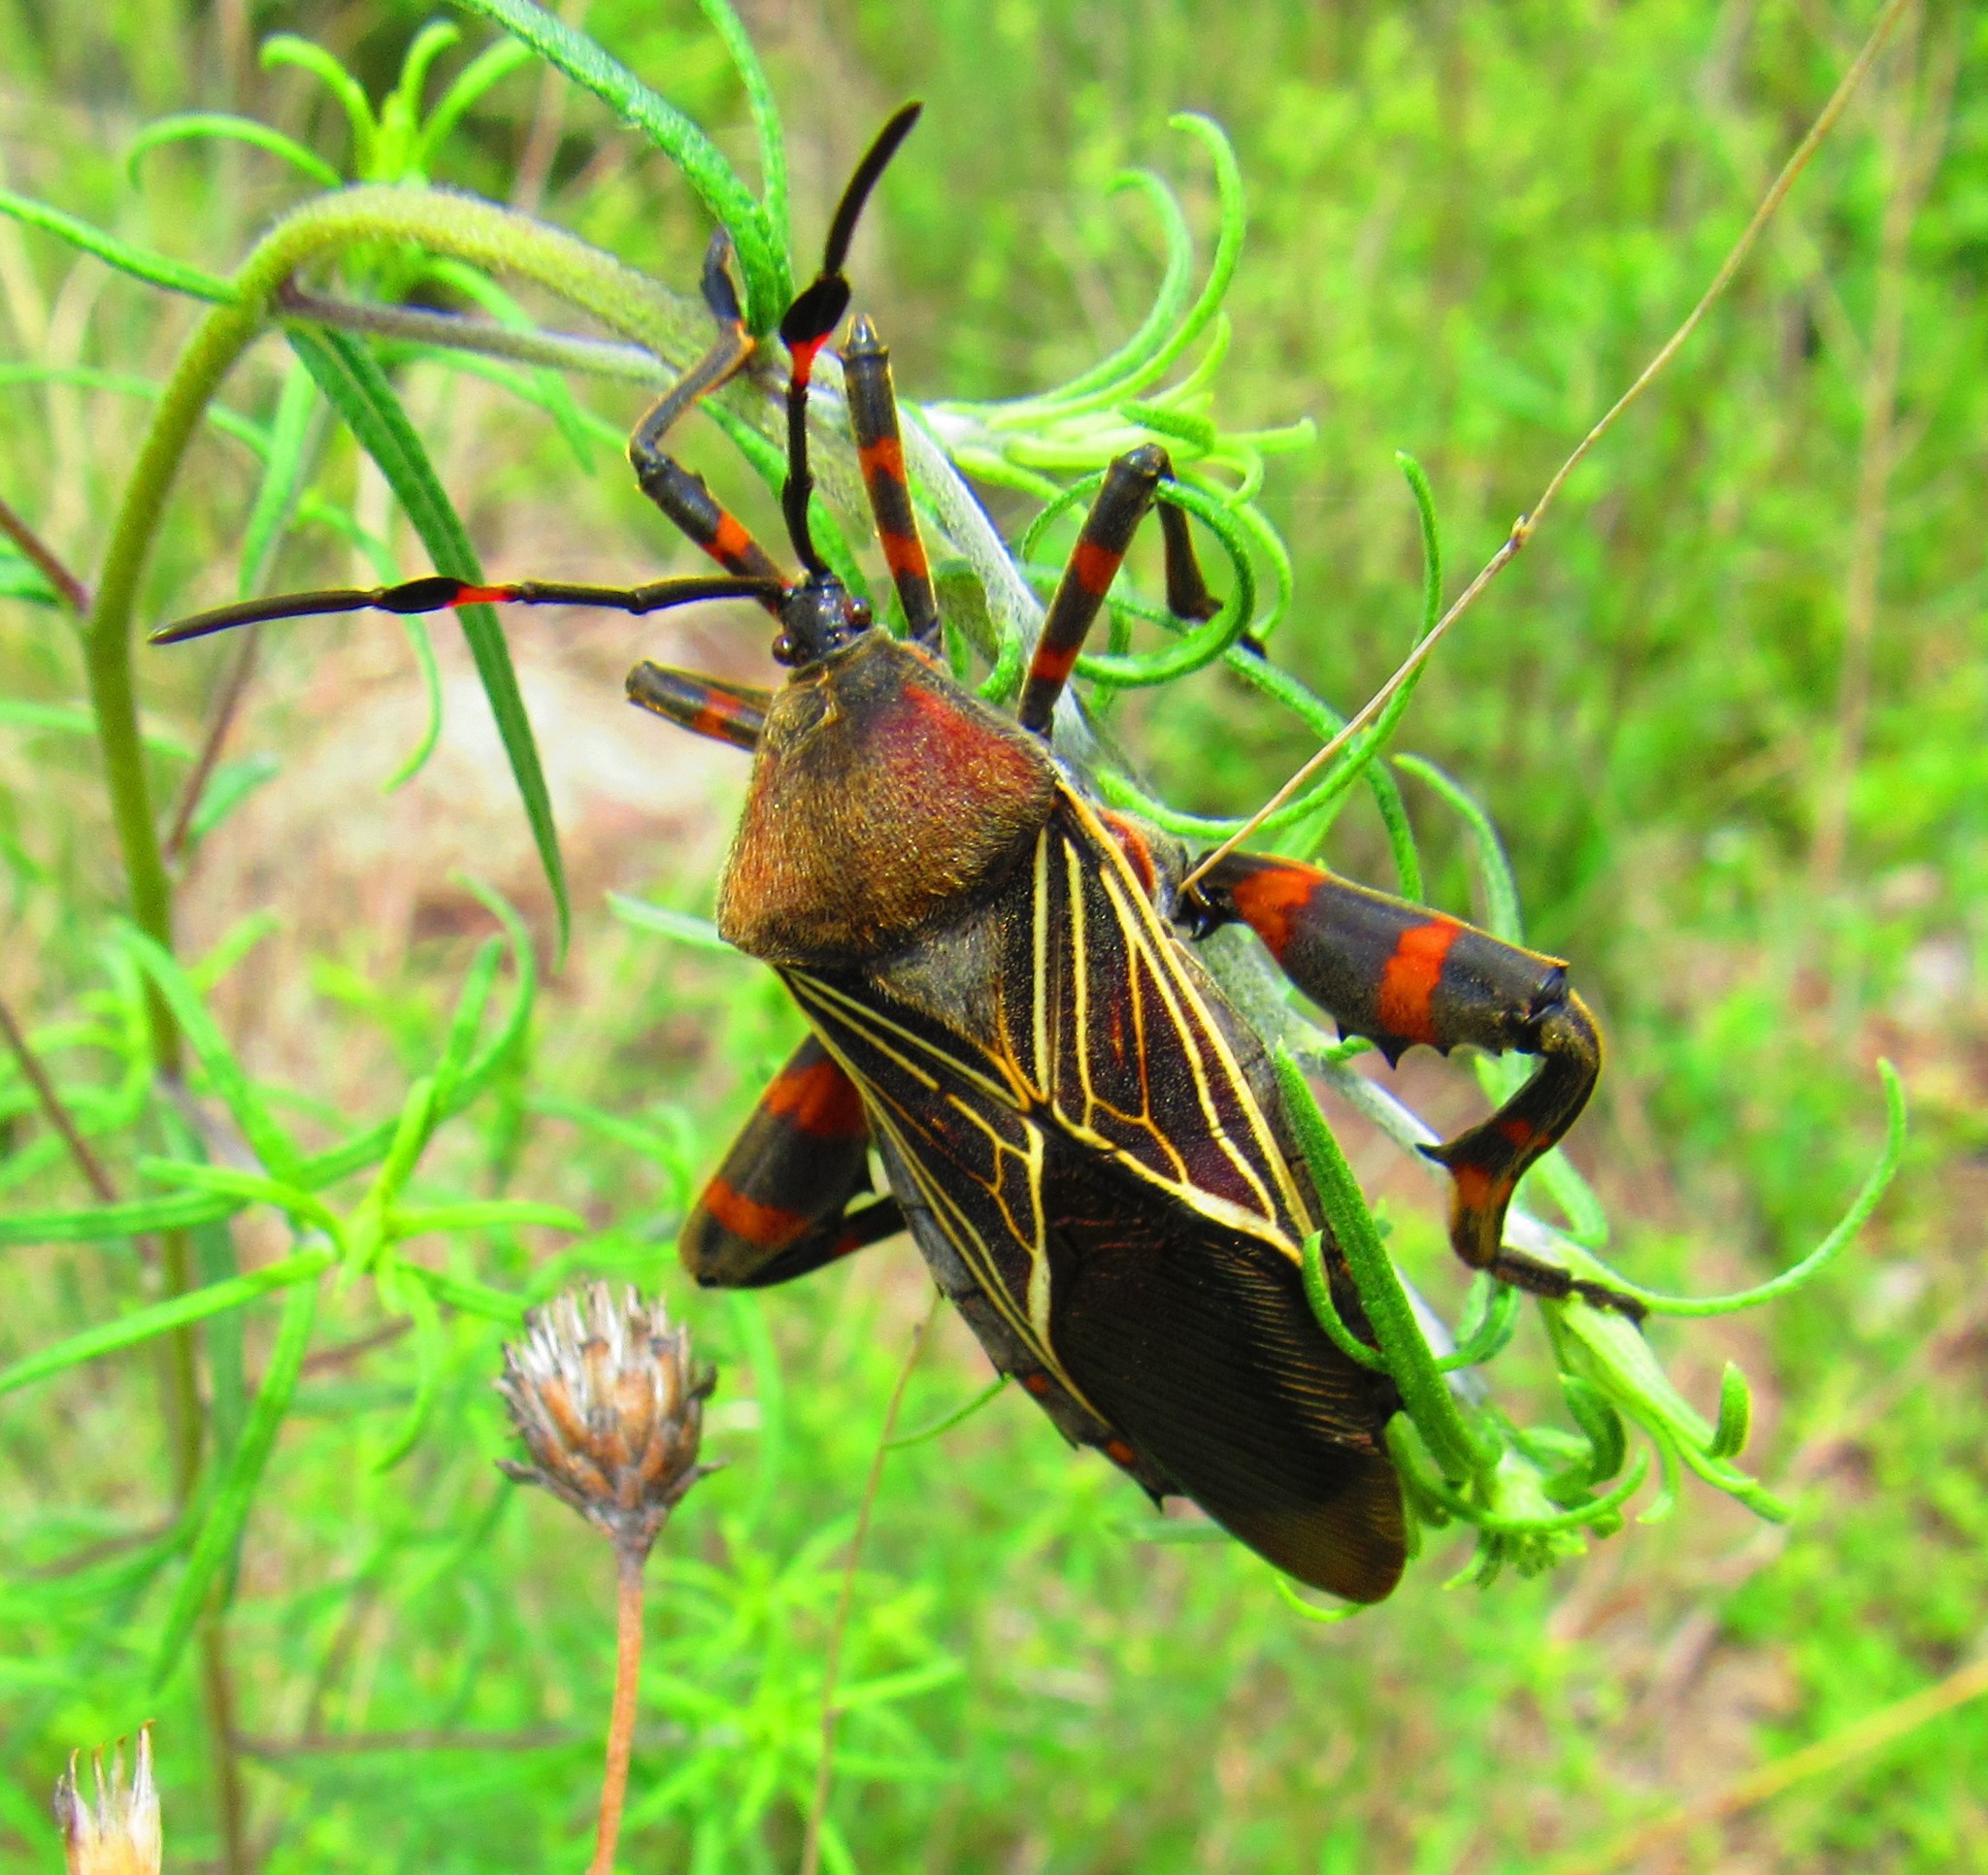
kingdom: Animalia
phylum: Arthropoda
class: Insecta
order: Hemiptera
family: Coreidae
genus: Thasus
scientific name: Thasus
